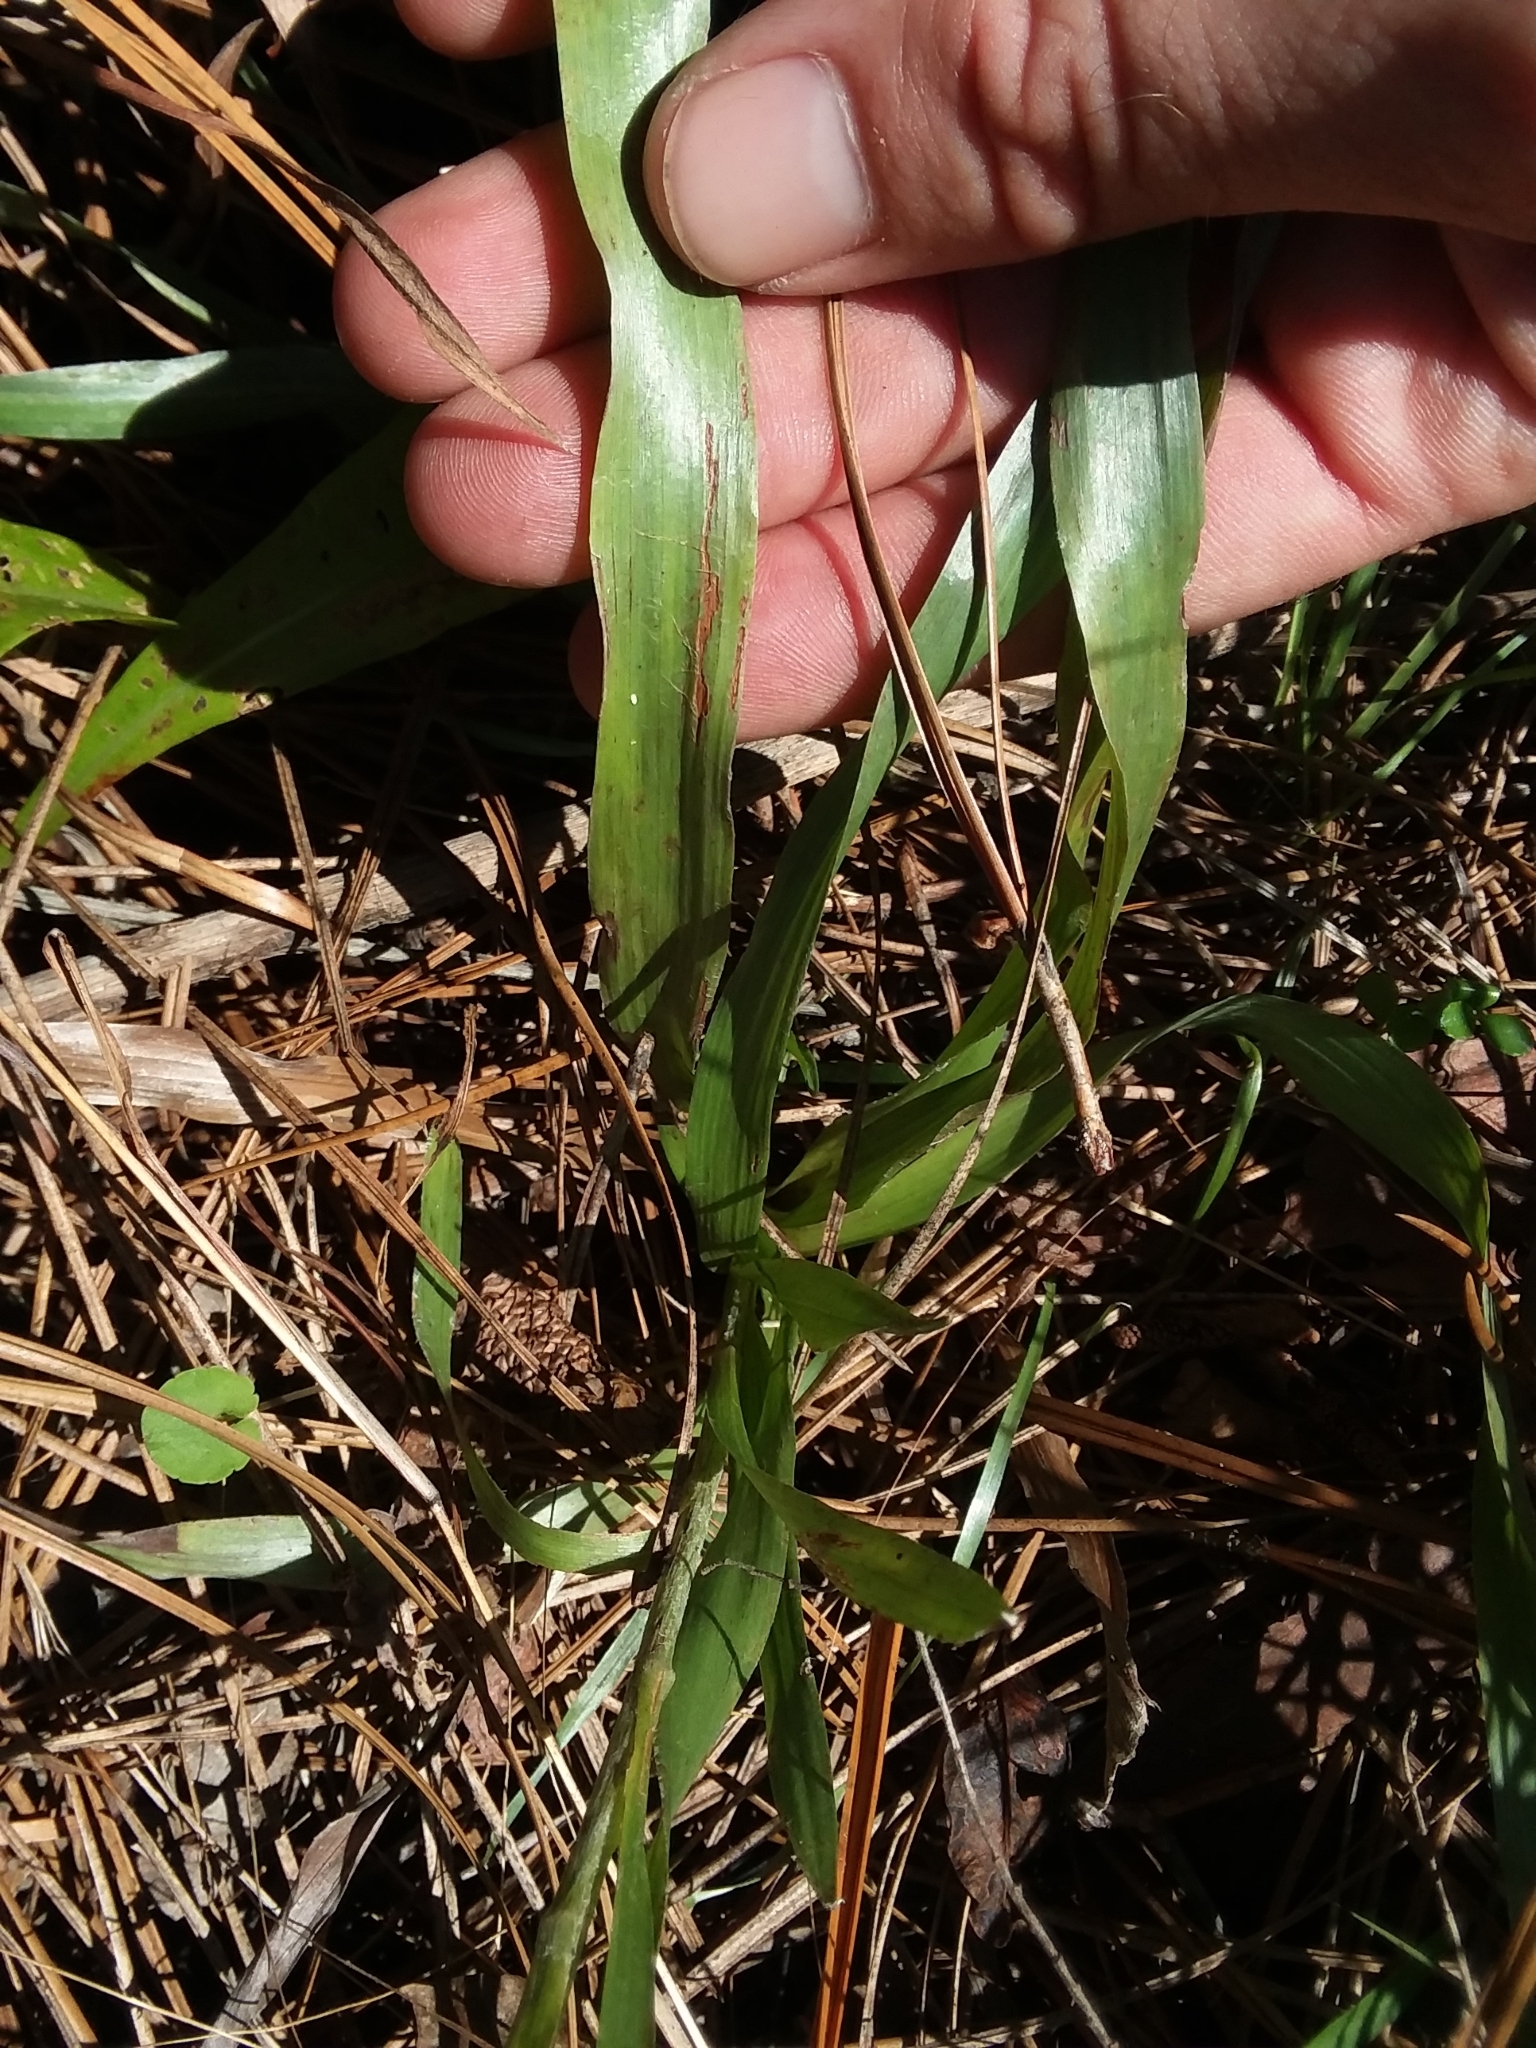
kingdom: Plantae
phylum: Tracheophyta
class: Magnoliopsida
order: Asterales
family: Asteraceae
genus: Pityopsis
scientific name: Pityopsis graminifolia
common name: Grass-leaf golden-aster
